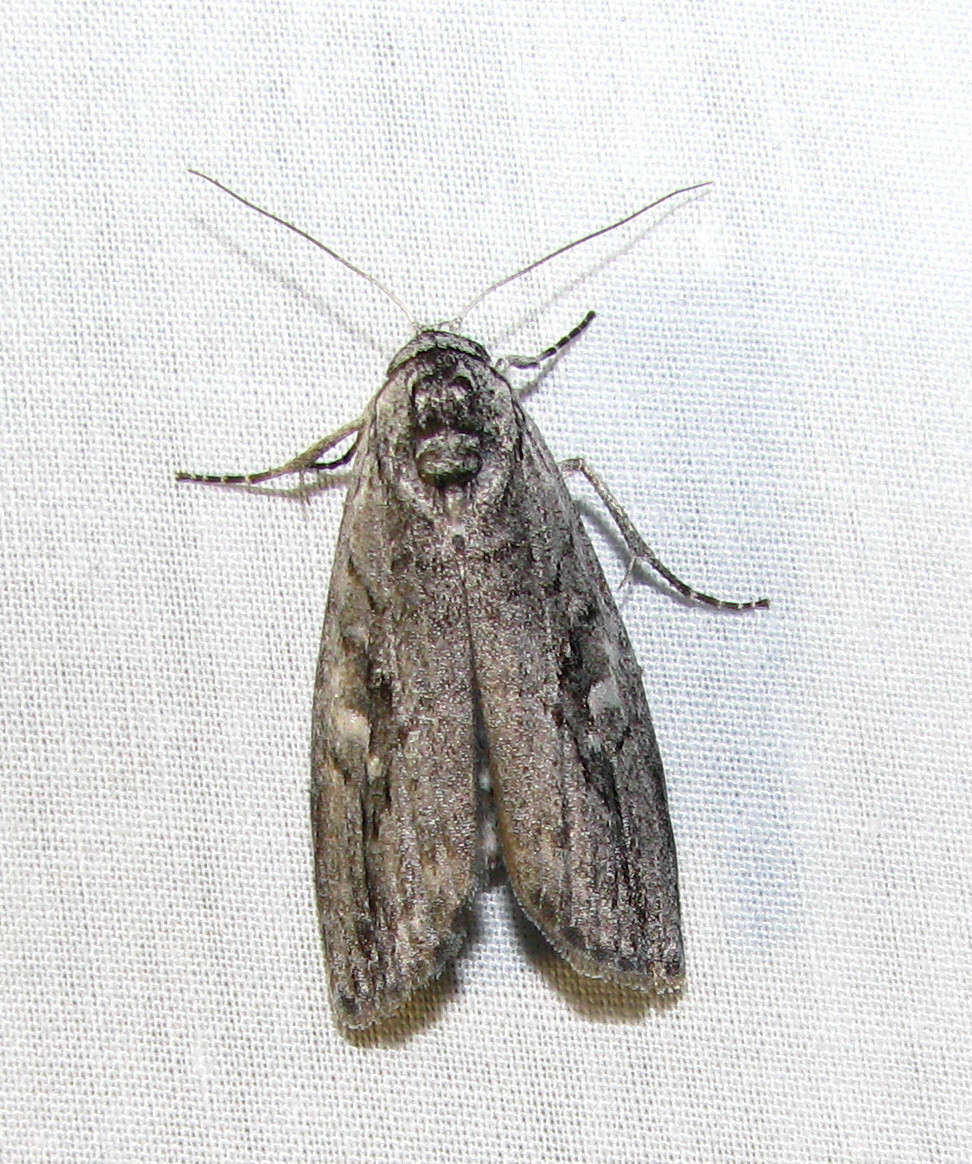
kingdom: Animalia
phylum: Arthropoda
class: Insecta
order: Lepidoptera
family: Nolidae
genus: Elesma
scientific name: Elesma
